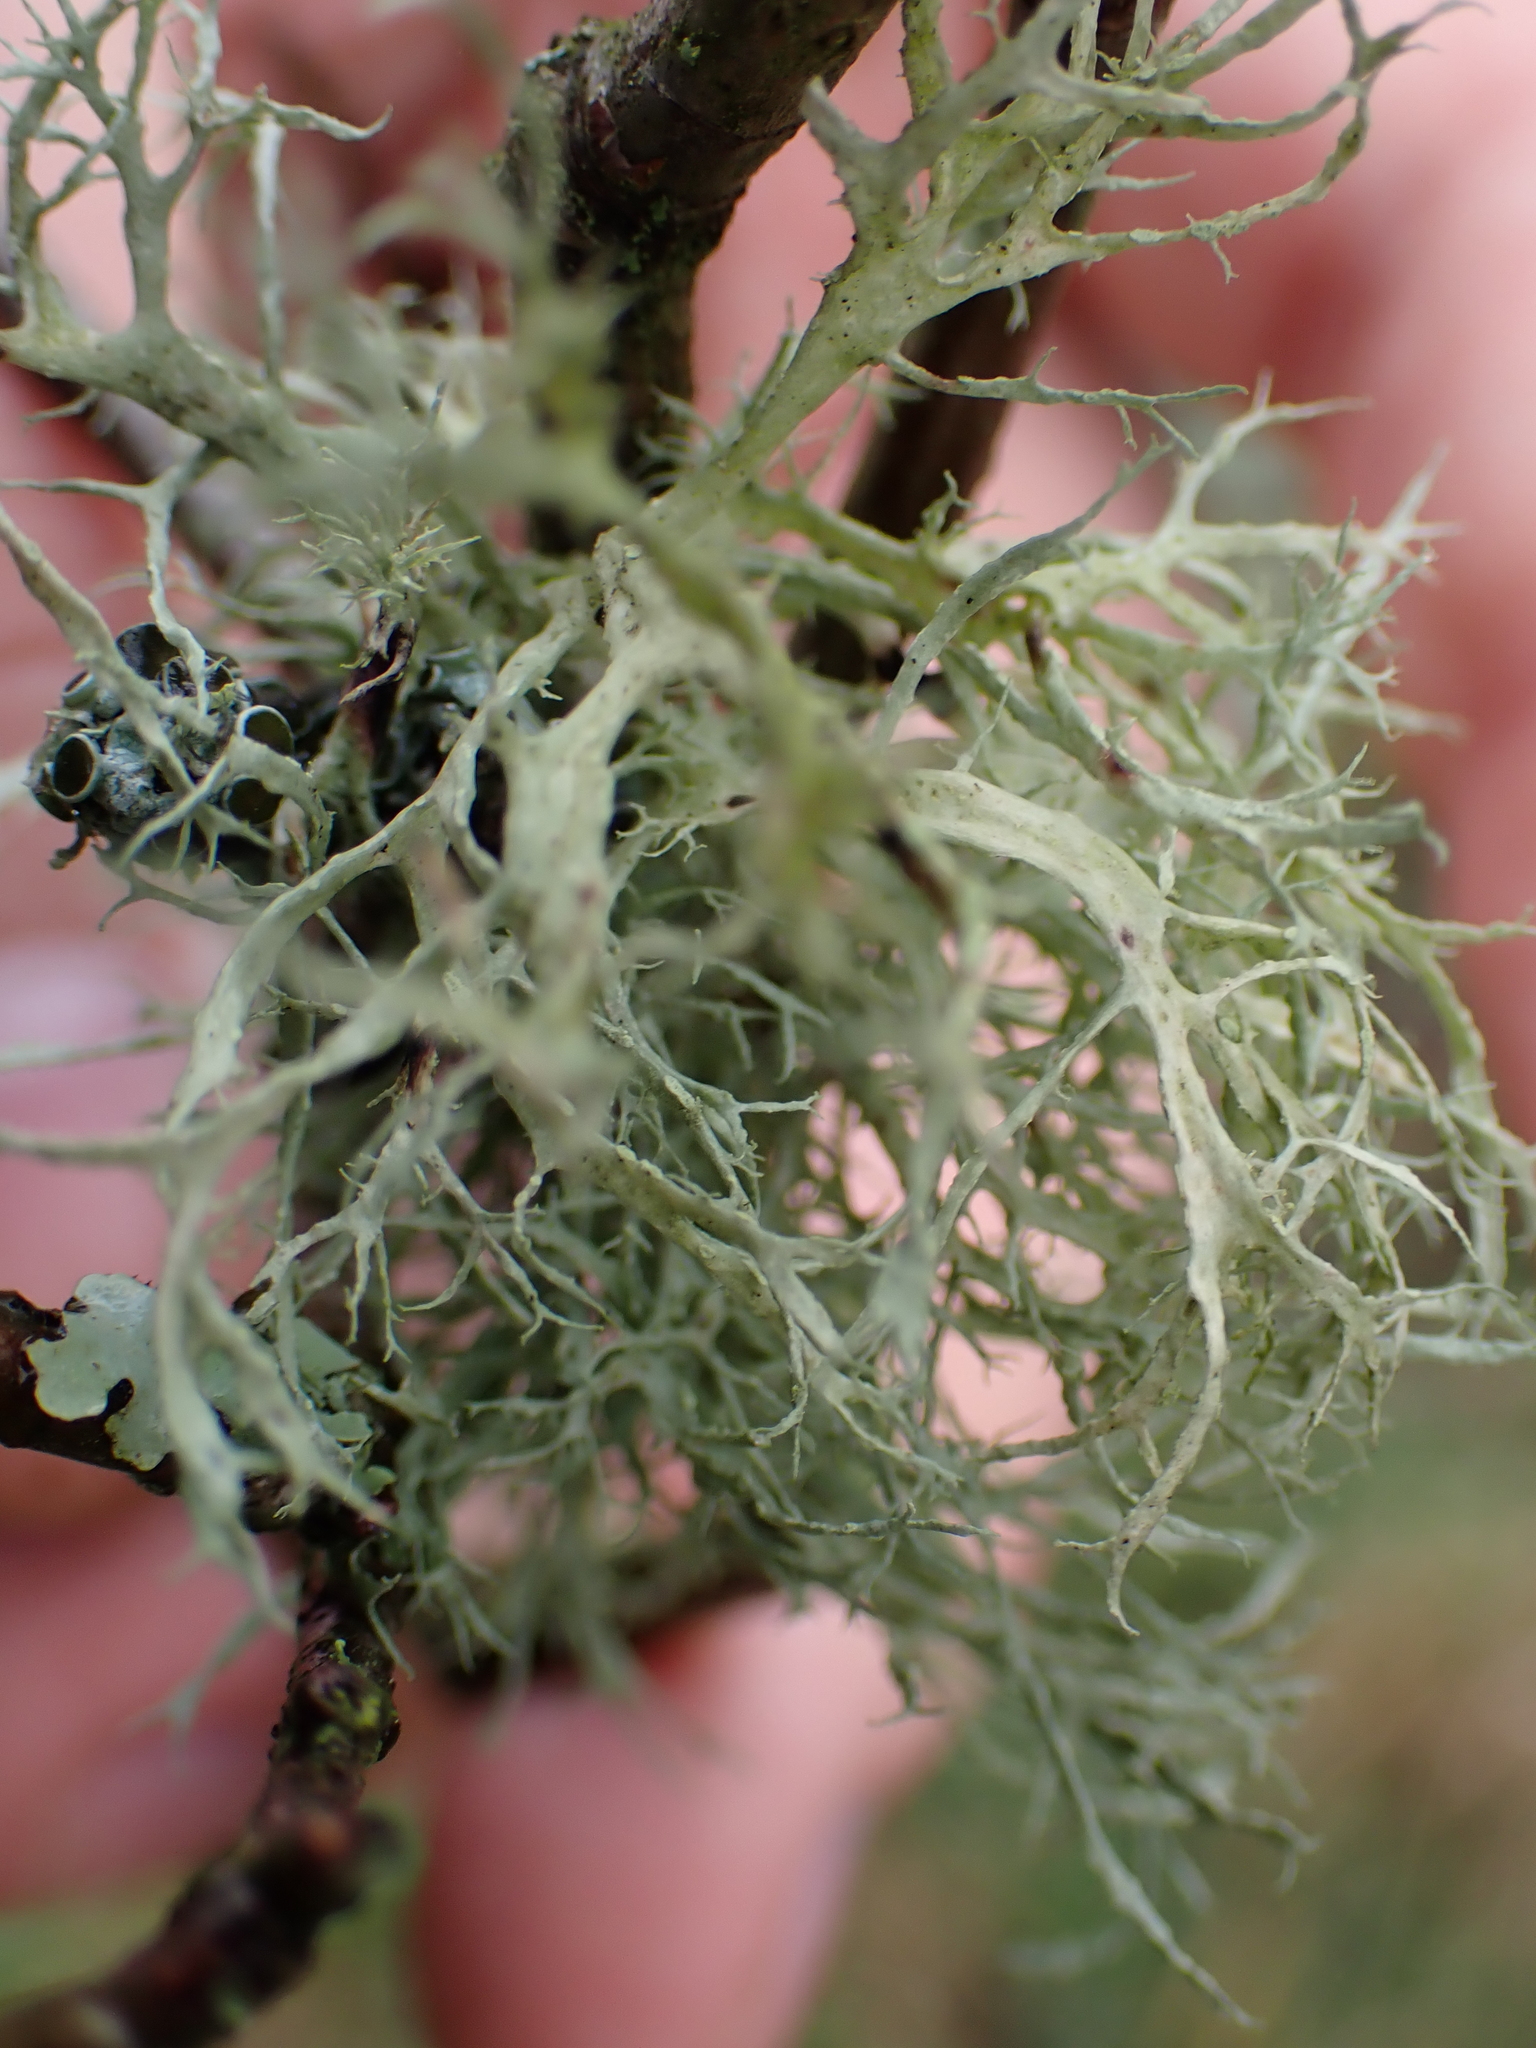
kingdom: Fungi
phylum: Ascomycota
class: Lecanoromycetes
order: Lecanorales
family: Ramalinaceae
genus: Ramalina
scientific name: Ramalina farinacea
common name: Farinose cartilage lichen
